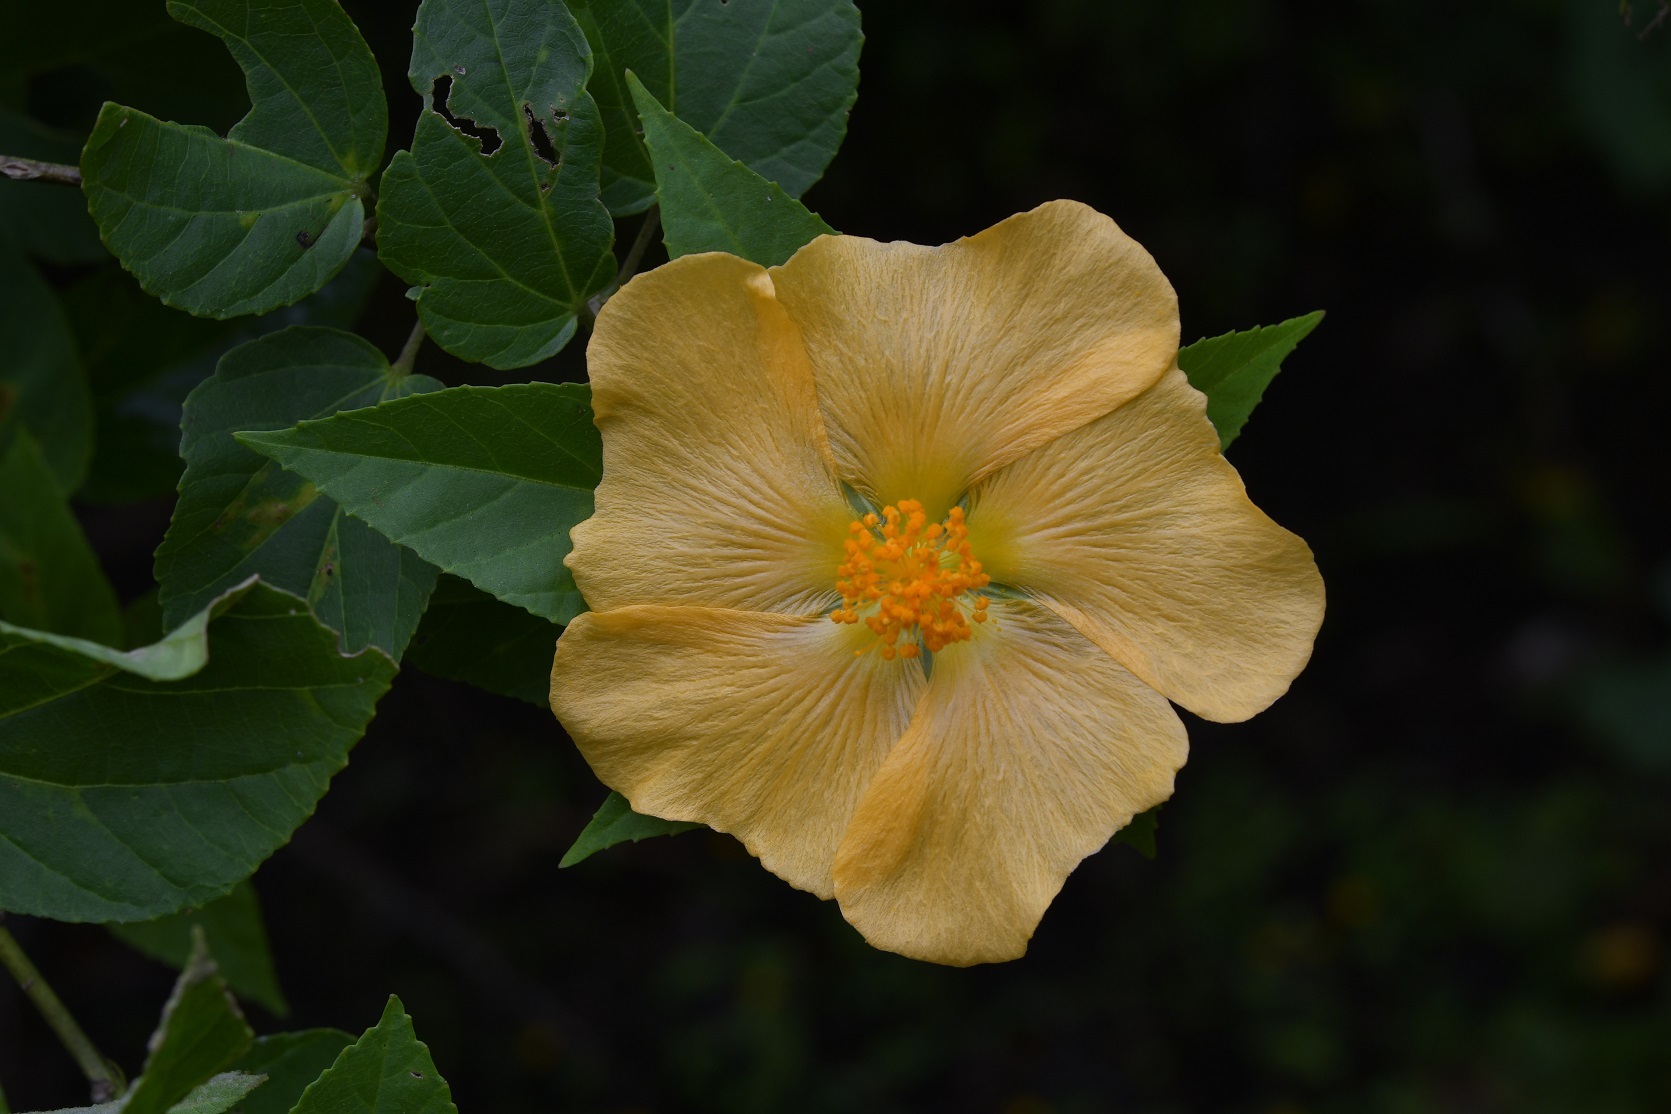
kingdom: Plantae
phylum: Tracheophyta
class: Magnoliopsida
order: Malvales
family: Malvaceae
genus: Dendrosida
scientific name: Dendrosida sharpiana
